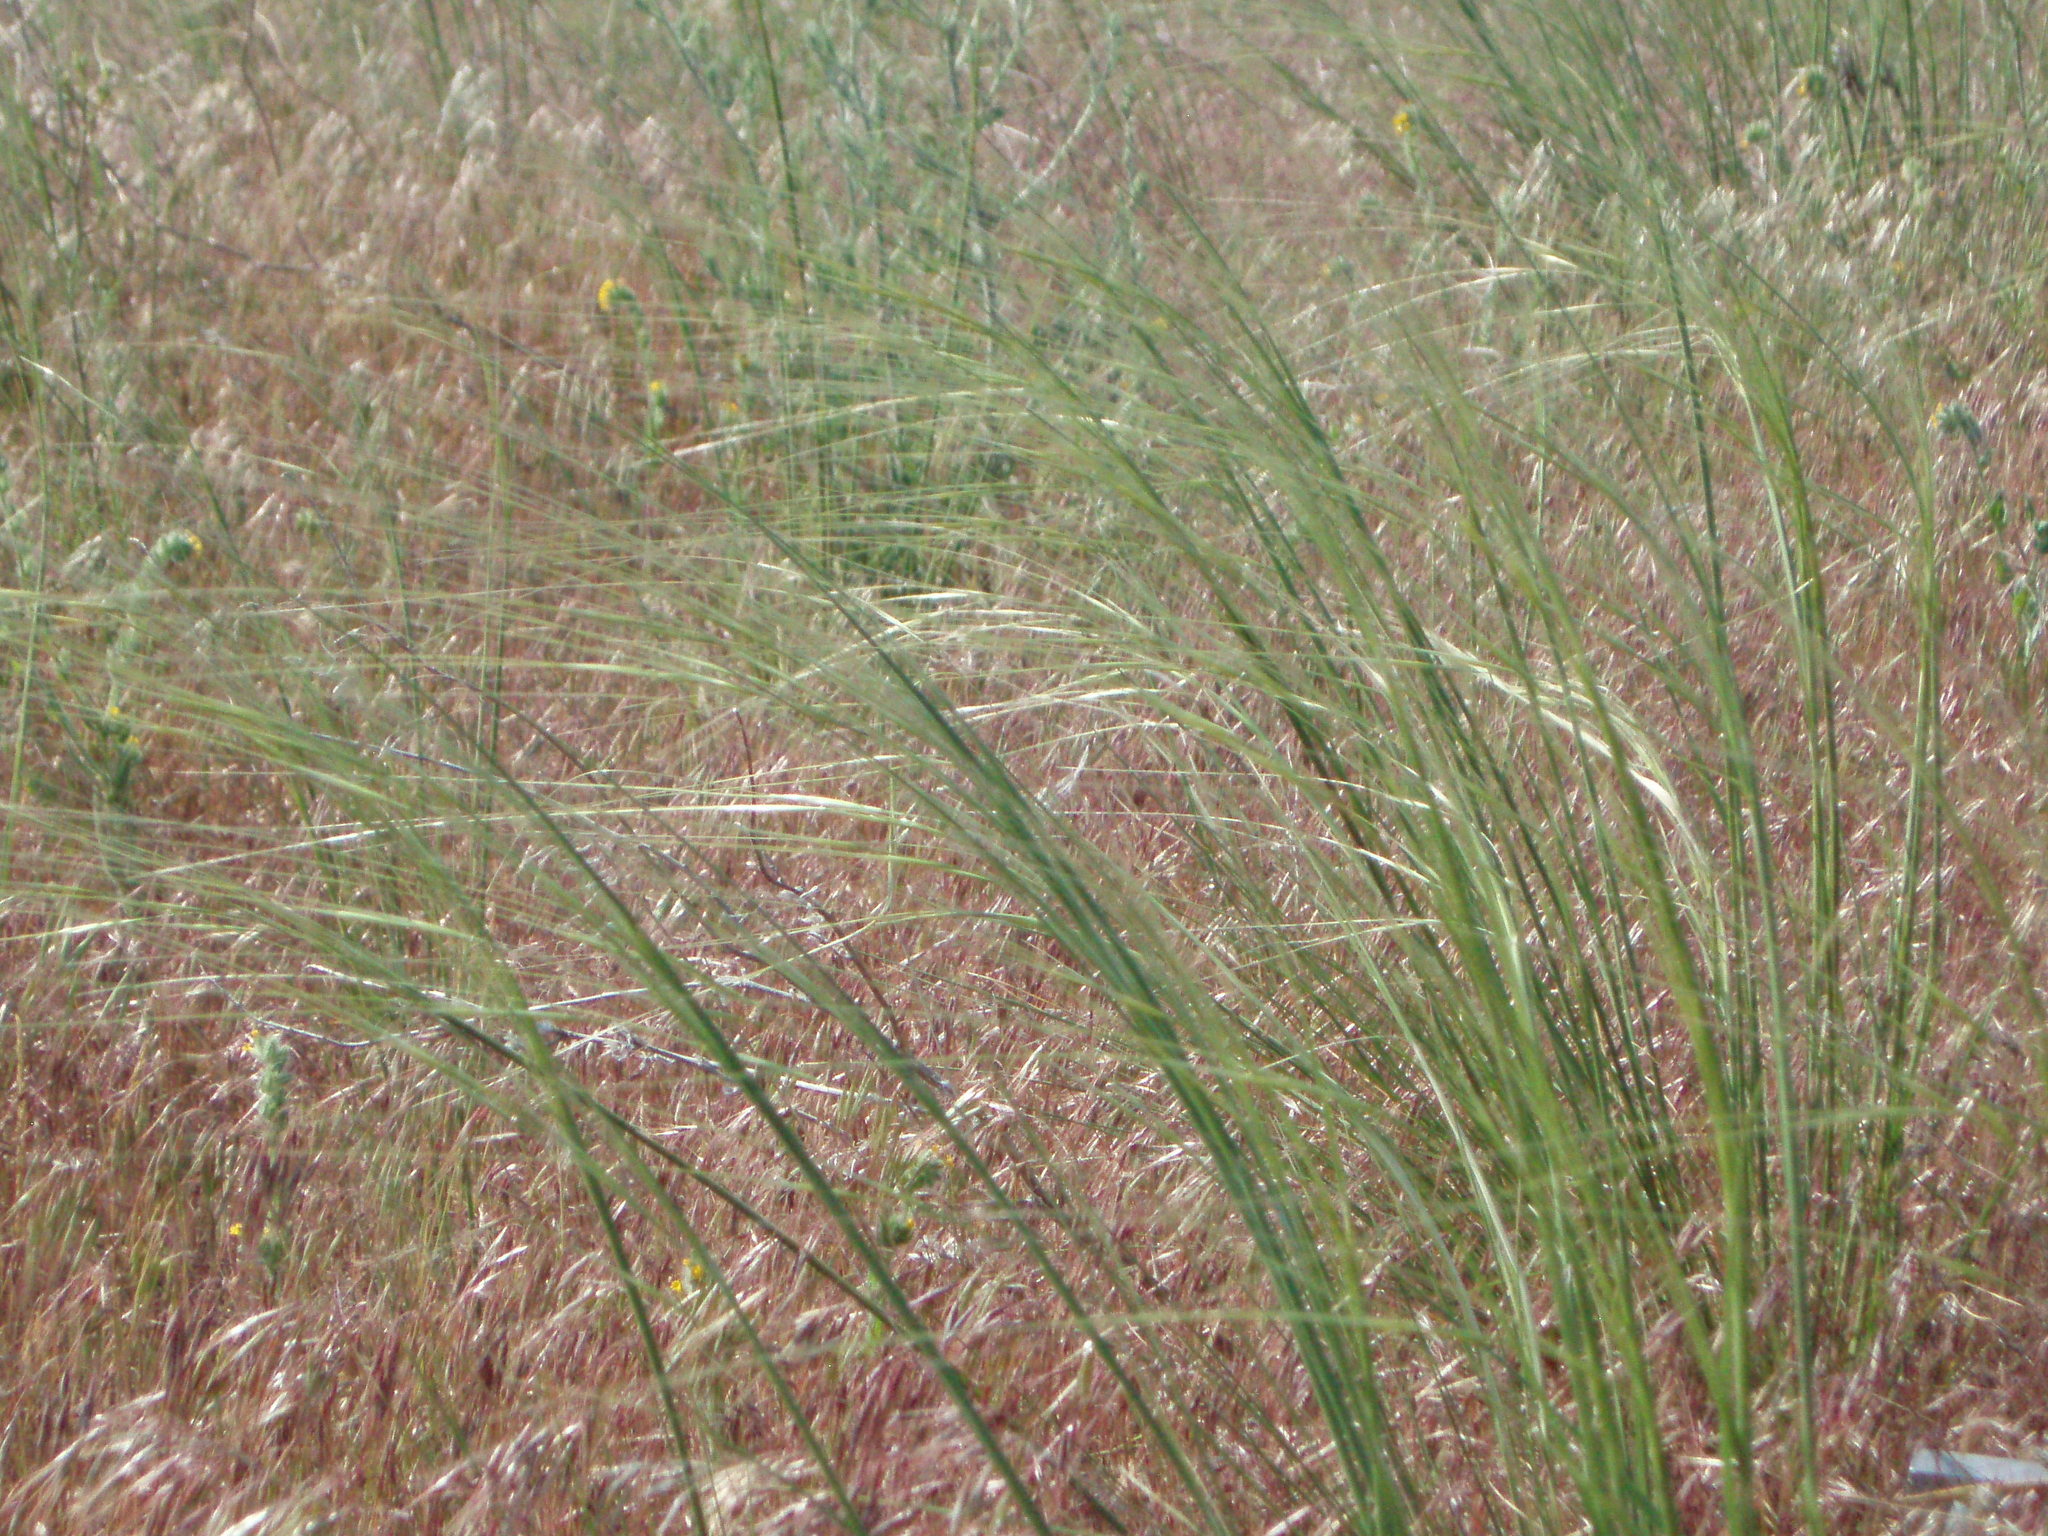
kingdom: Plantae
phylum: Tracheophyta
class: Liliopsida
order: Poales
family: Poaceae
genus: Hesperostipa
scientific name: Hesperostipa comata
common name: Needle-and-thread grass
